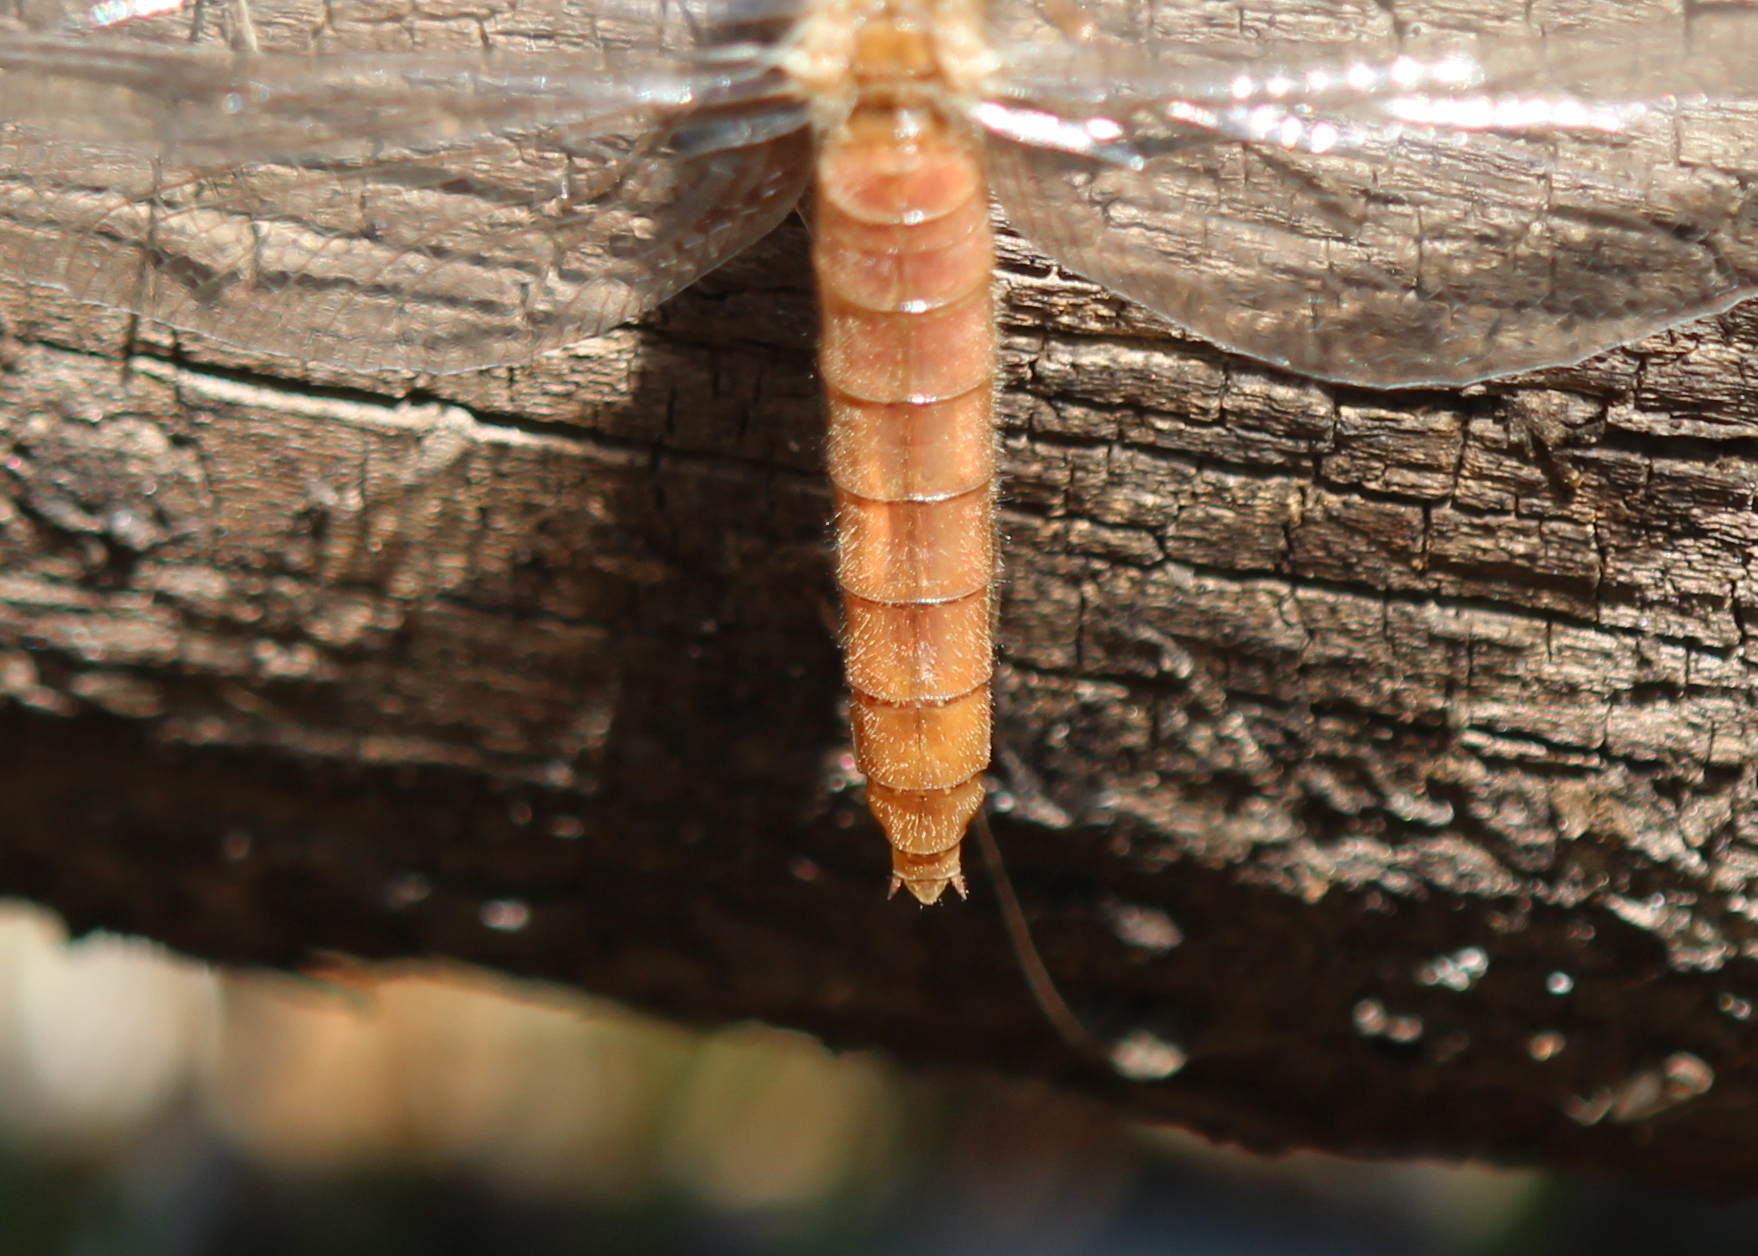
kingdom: Animalia
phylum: Arthropoda
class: Insecta
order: Odonata
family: Libellulidae
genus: Ladona
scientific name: Ladona julia
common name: Chalk-fronted corporal
